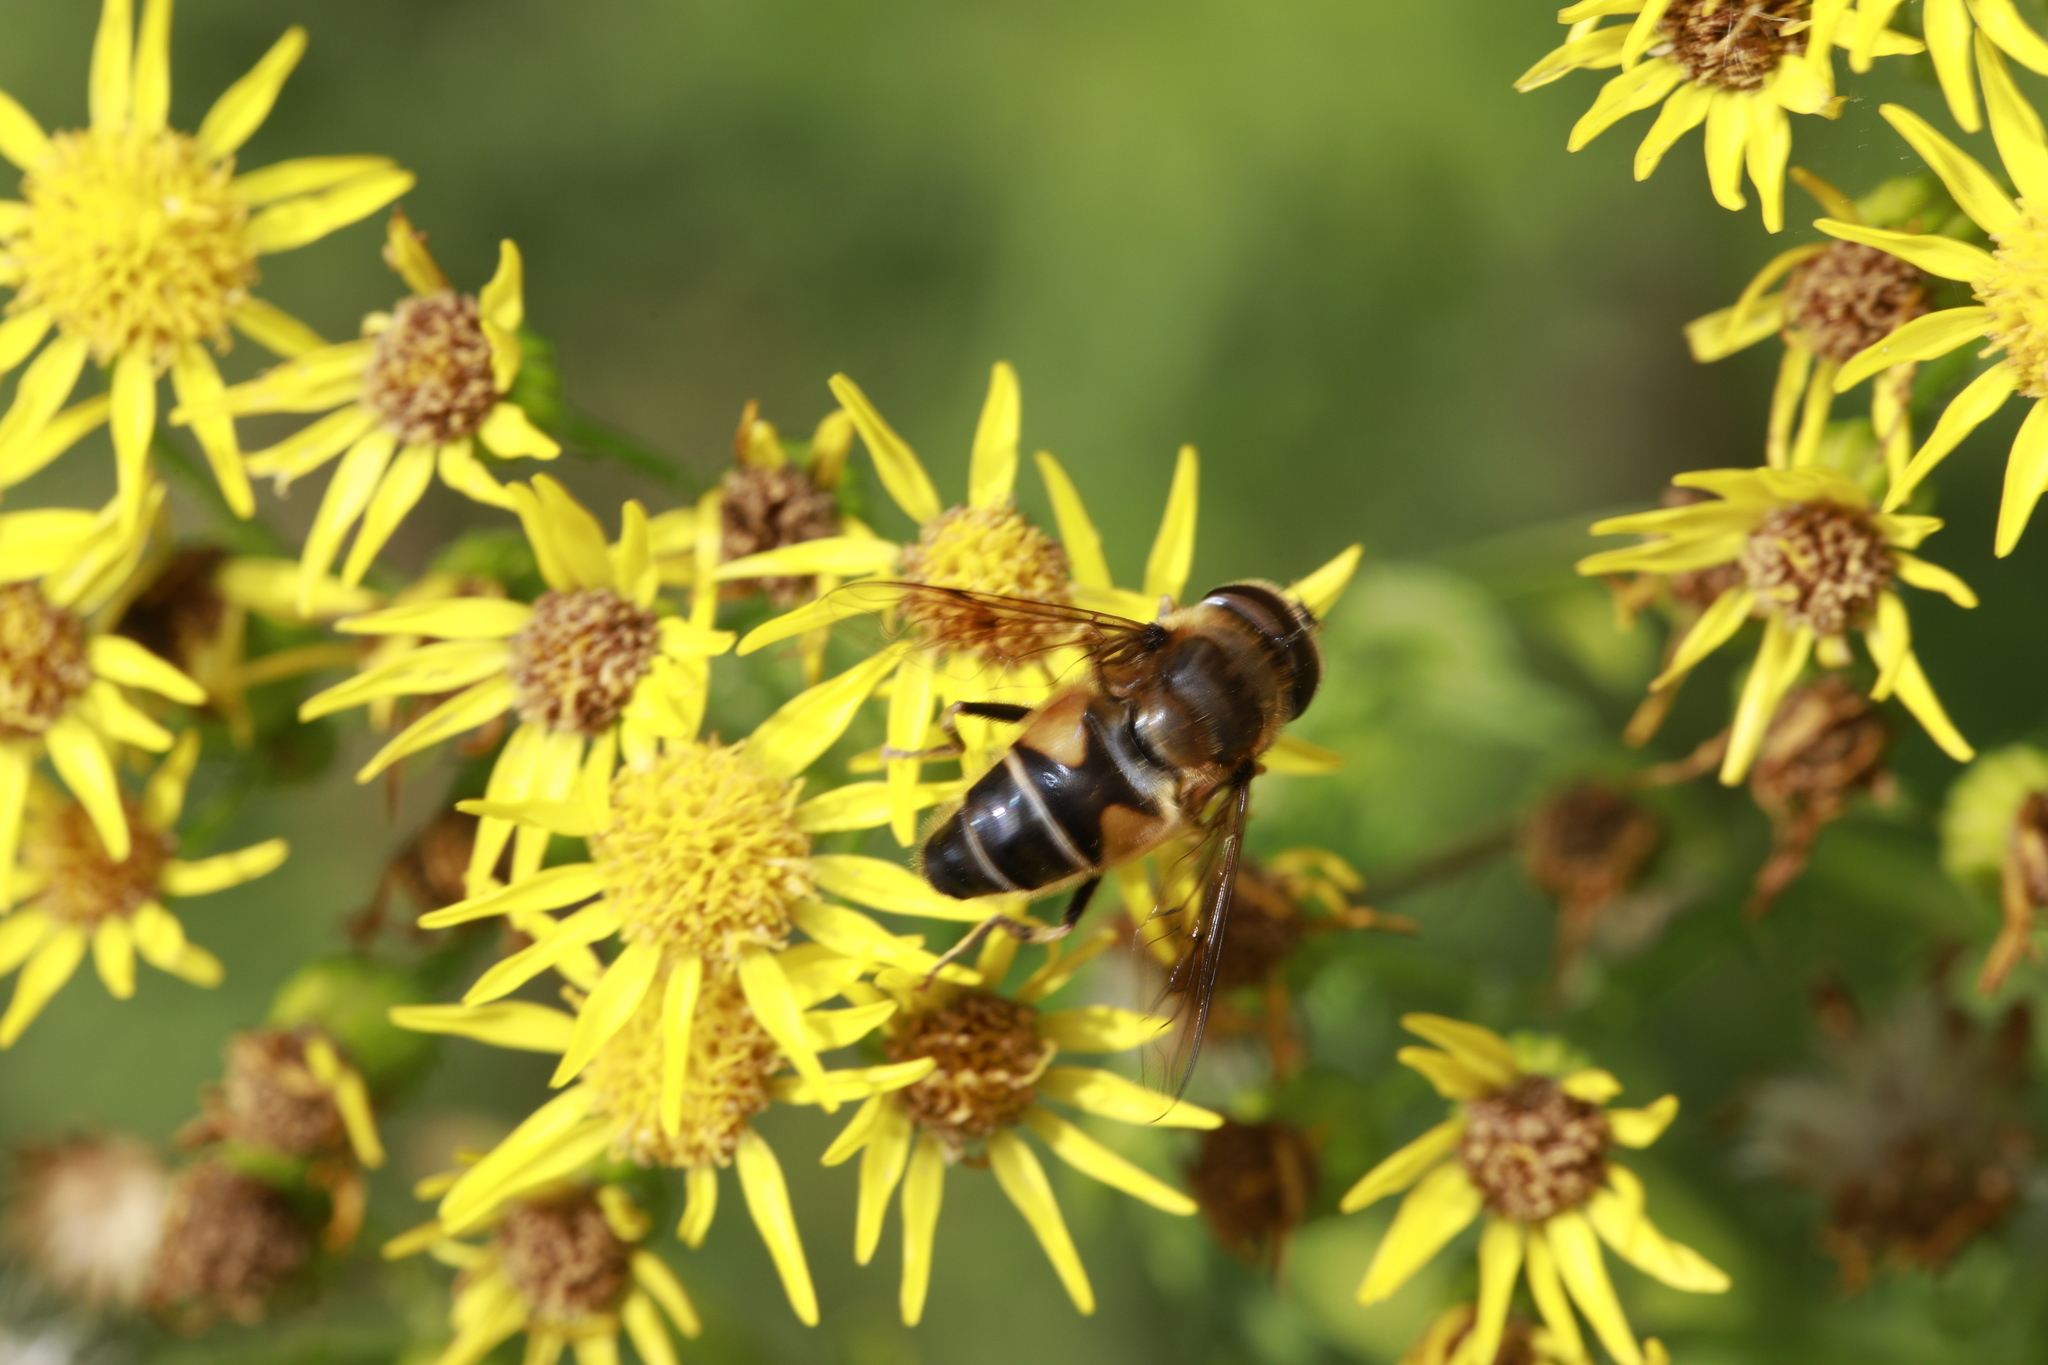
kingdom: Animalia
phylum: Arthropoda
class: Insecta
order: Diptera
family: Syrphidae
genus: Eristalis
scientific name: Eristalis pertinax
